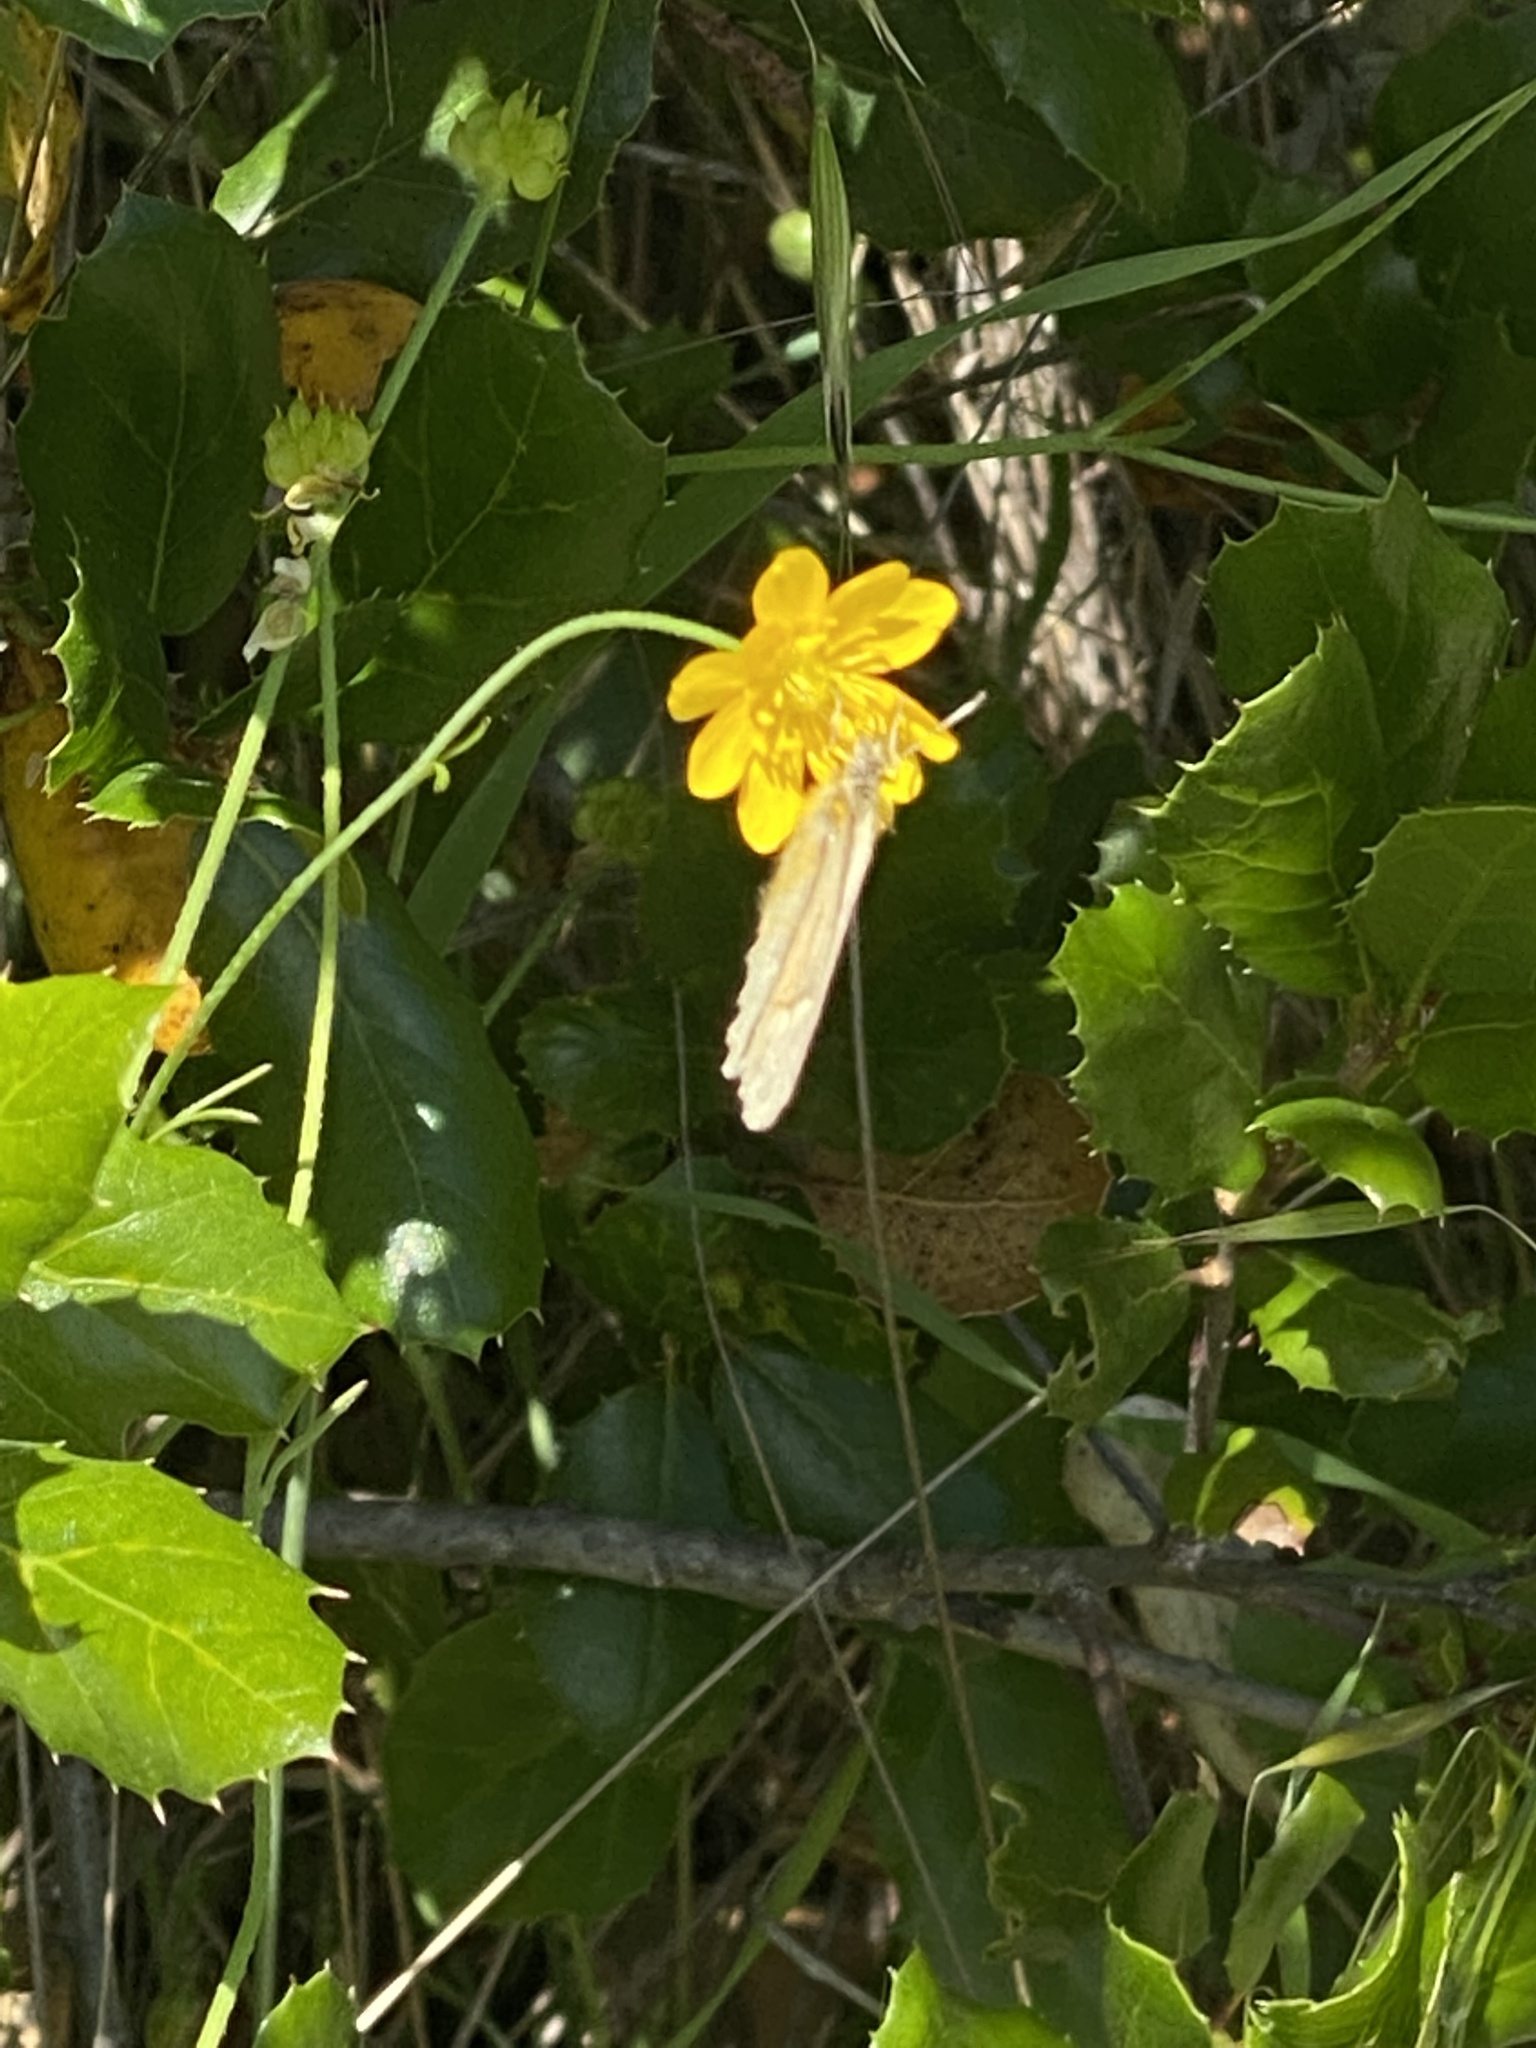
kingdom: Animalia
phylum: Arthropoda
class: Insecta
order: Lepidoptera
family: Nymphalidae
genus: Coenonympha
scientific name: Coenonympha california
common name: Common ringlet
